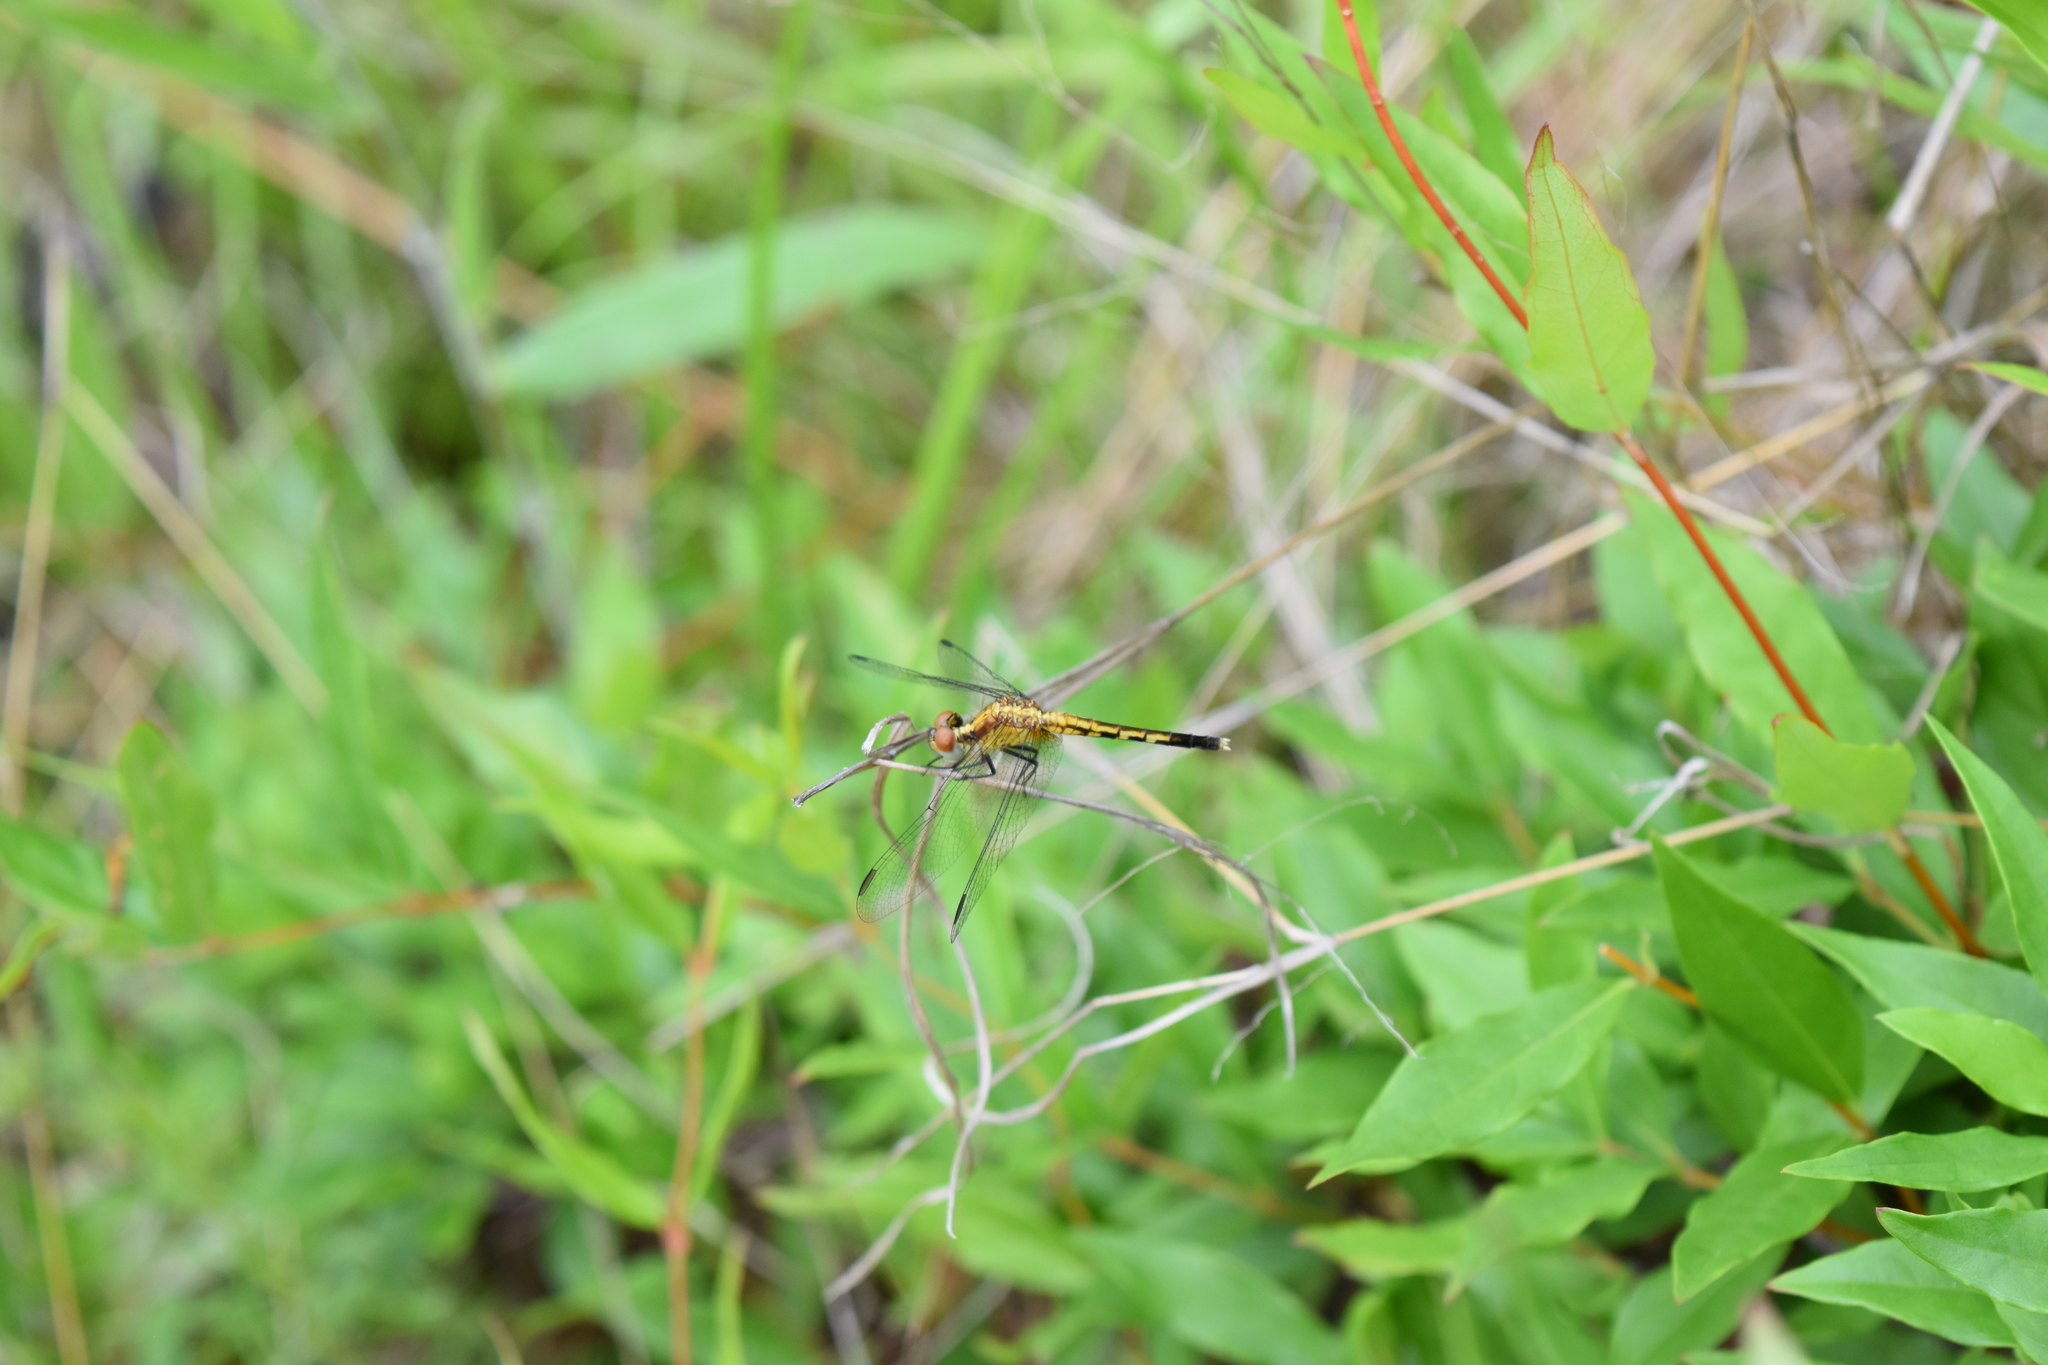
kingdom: Animalia
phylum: Arthropoda
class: Insecta
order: Odonata
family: Libellulidae
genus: Erythrodiplax
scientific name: Erythrodiplax minuscula
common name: Little blue dragonlet
